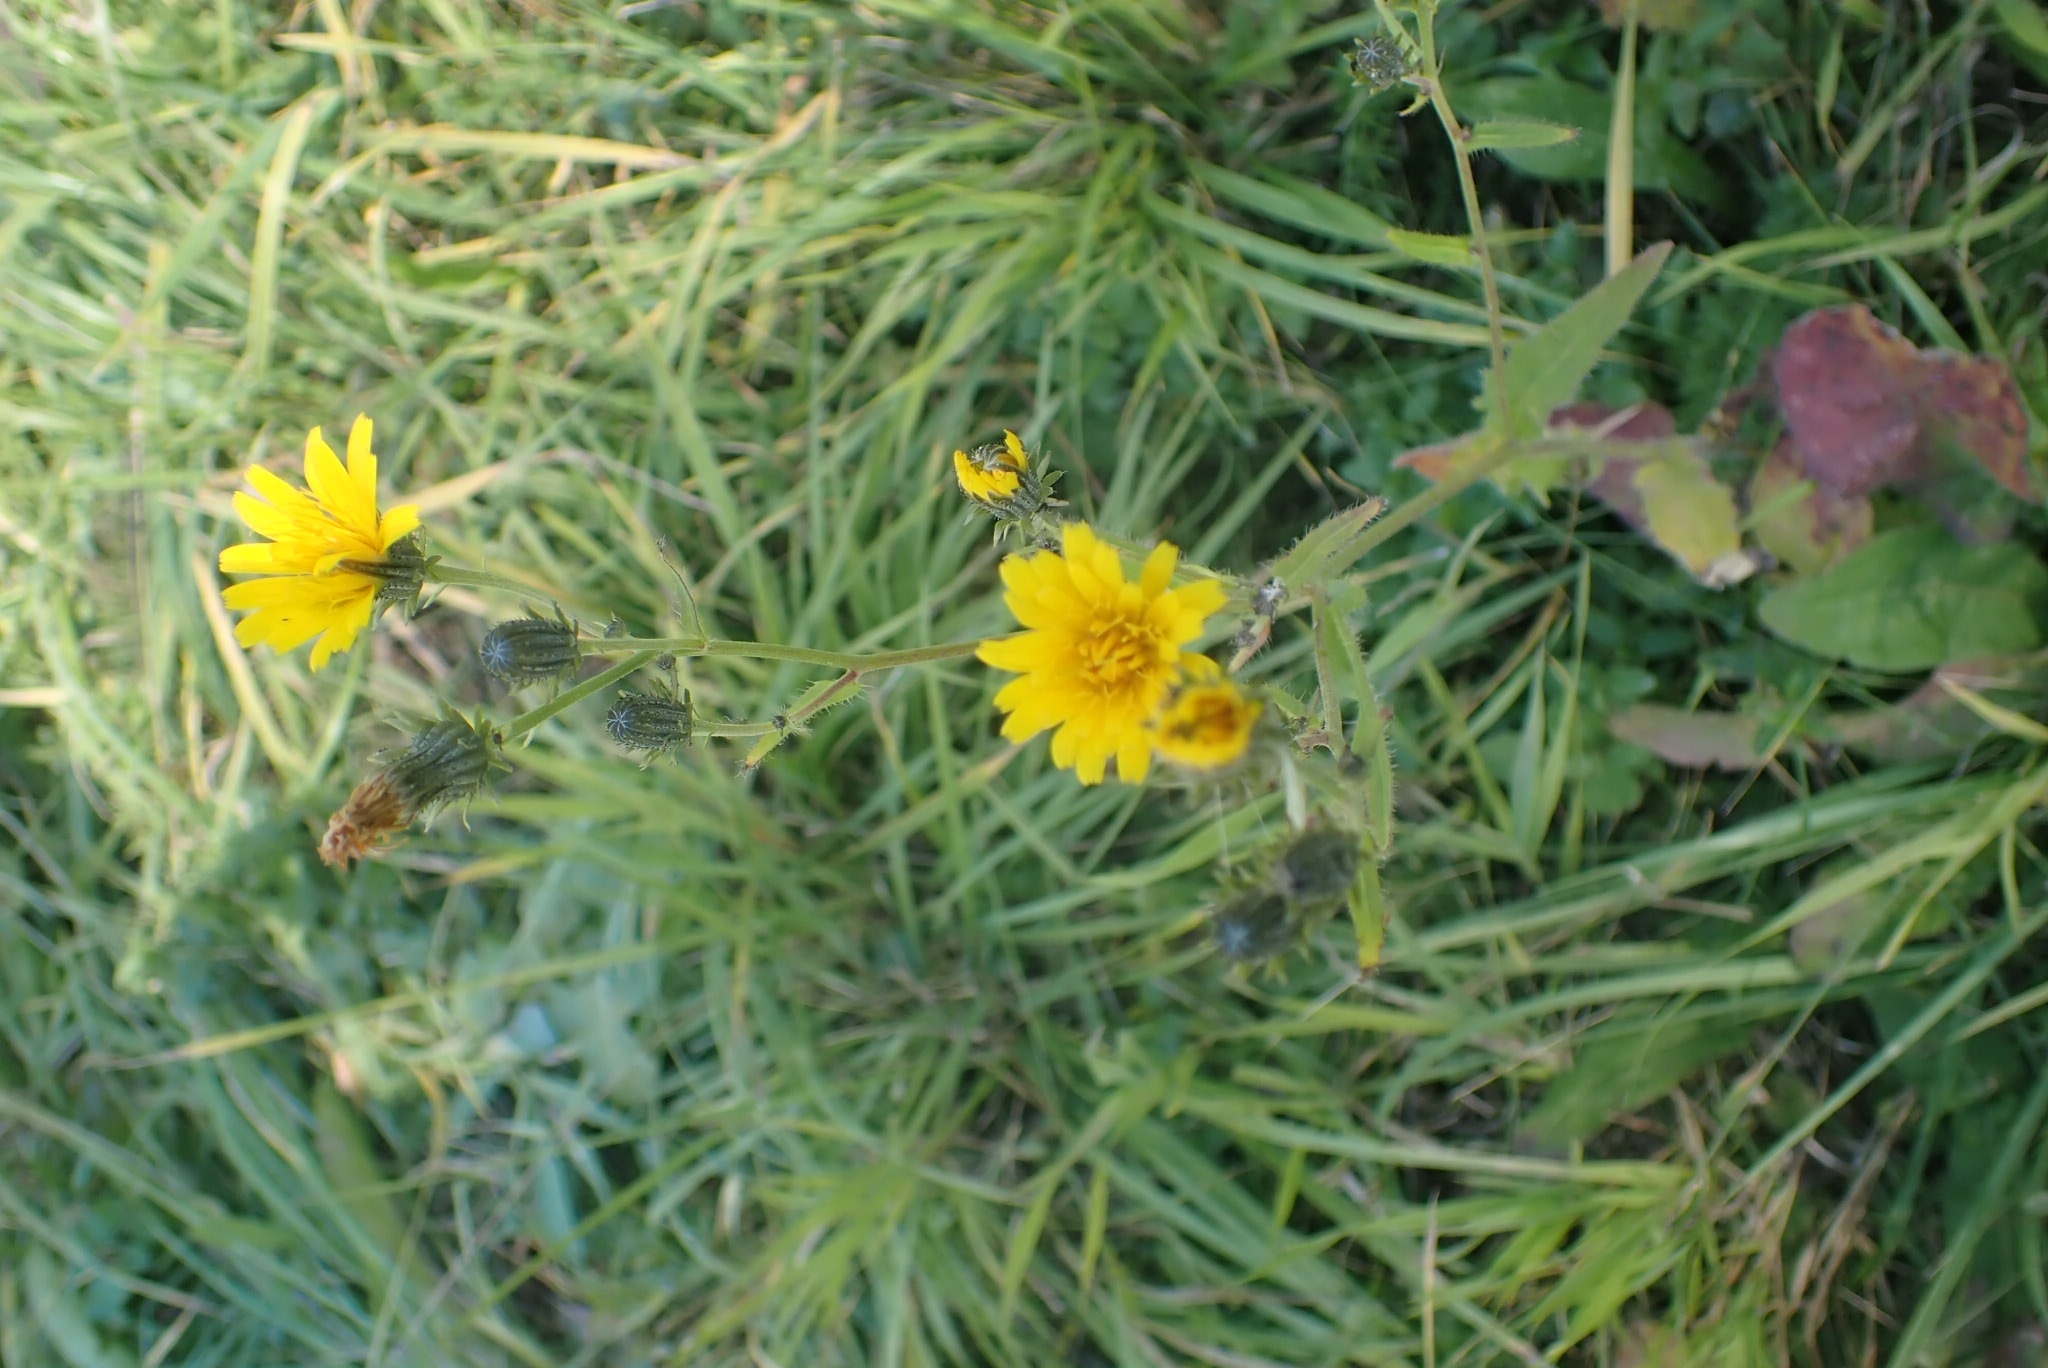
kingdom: Plantae
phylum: Tracheophyta
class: Magnoliopsida
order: Asterales
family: Asteraceae
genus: Picris
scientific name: Picris hieracioides
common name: Hawkweed oxtongue
